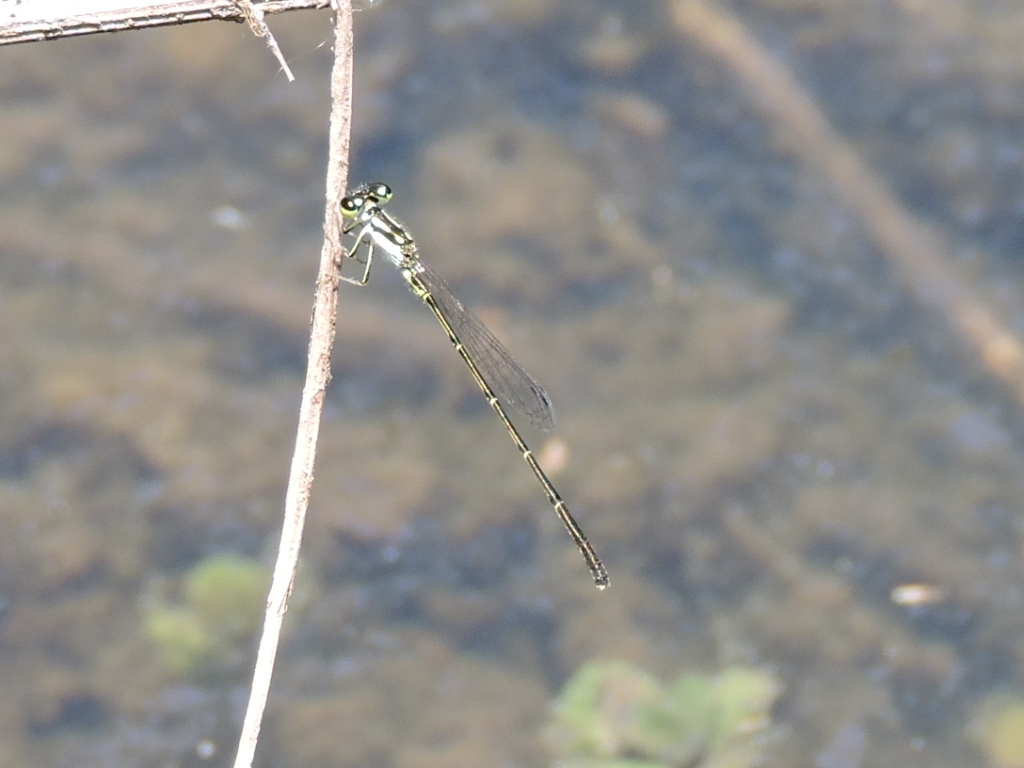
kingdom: Animalia
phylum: Arthropoda
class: Insecta
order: Odonata
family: Coenagrionidae
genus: Ischnura
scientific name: Ischnura posita
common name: Fragile forktail
